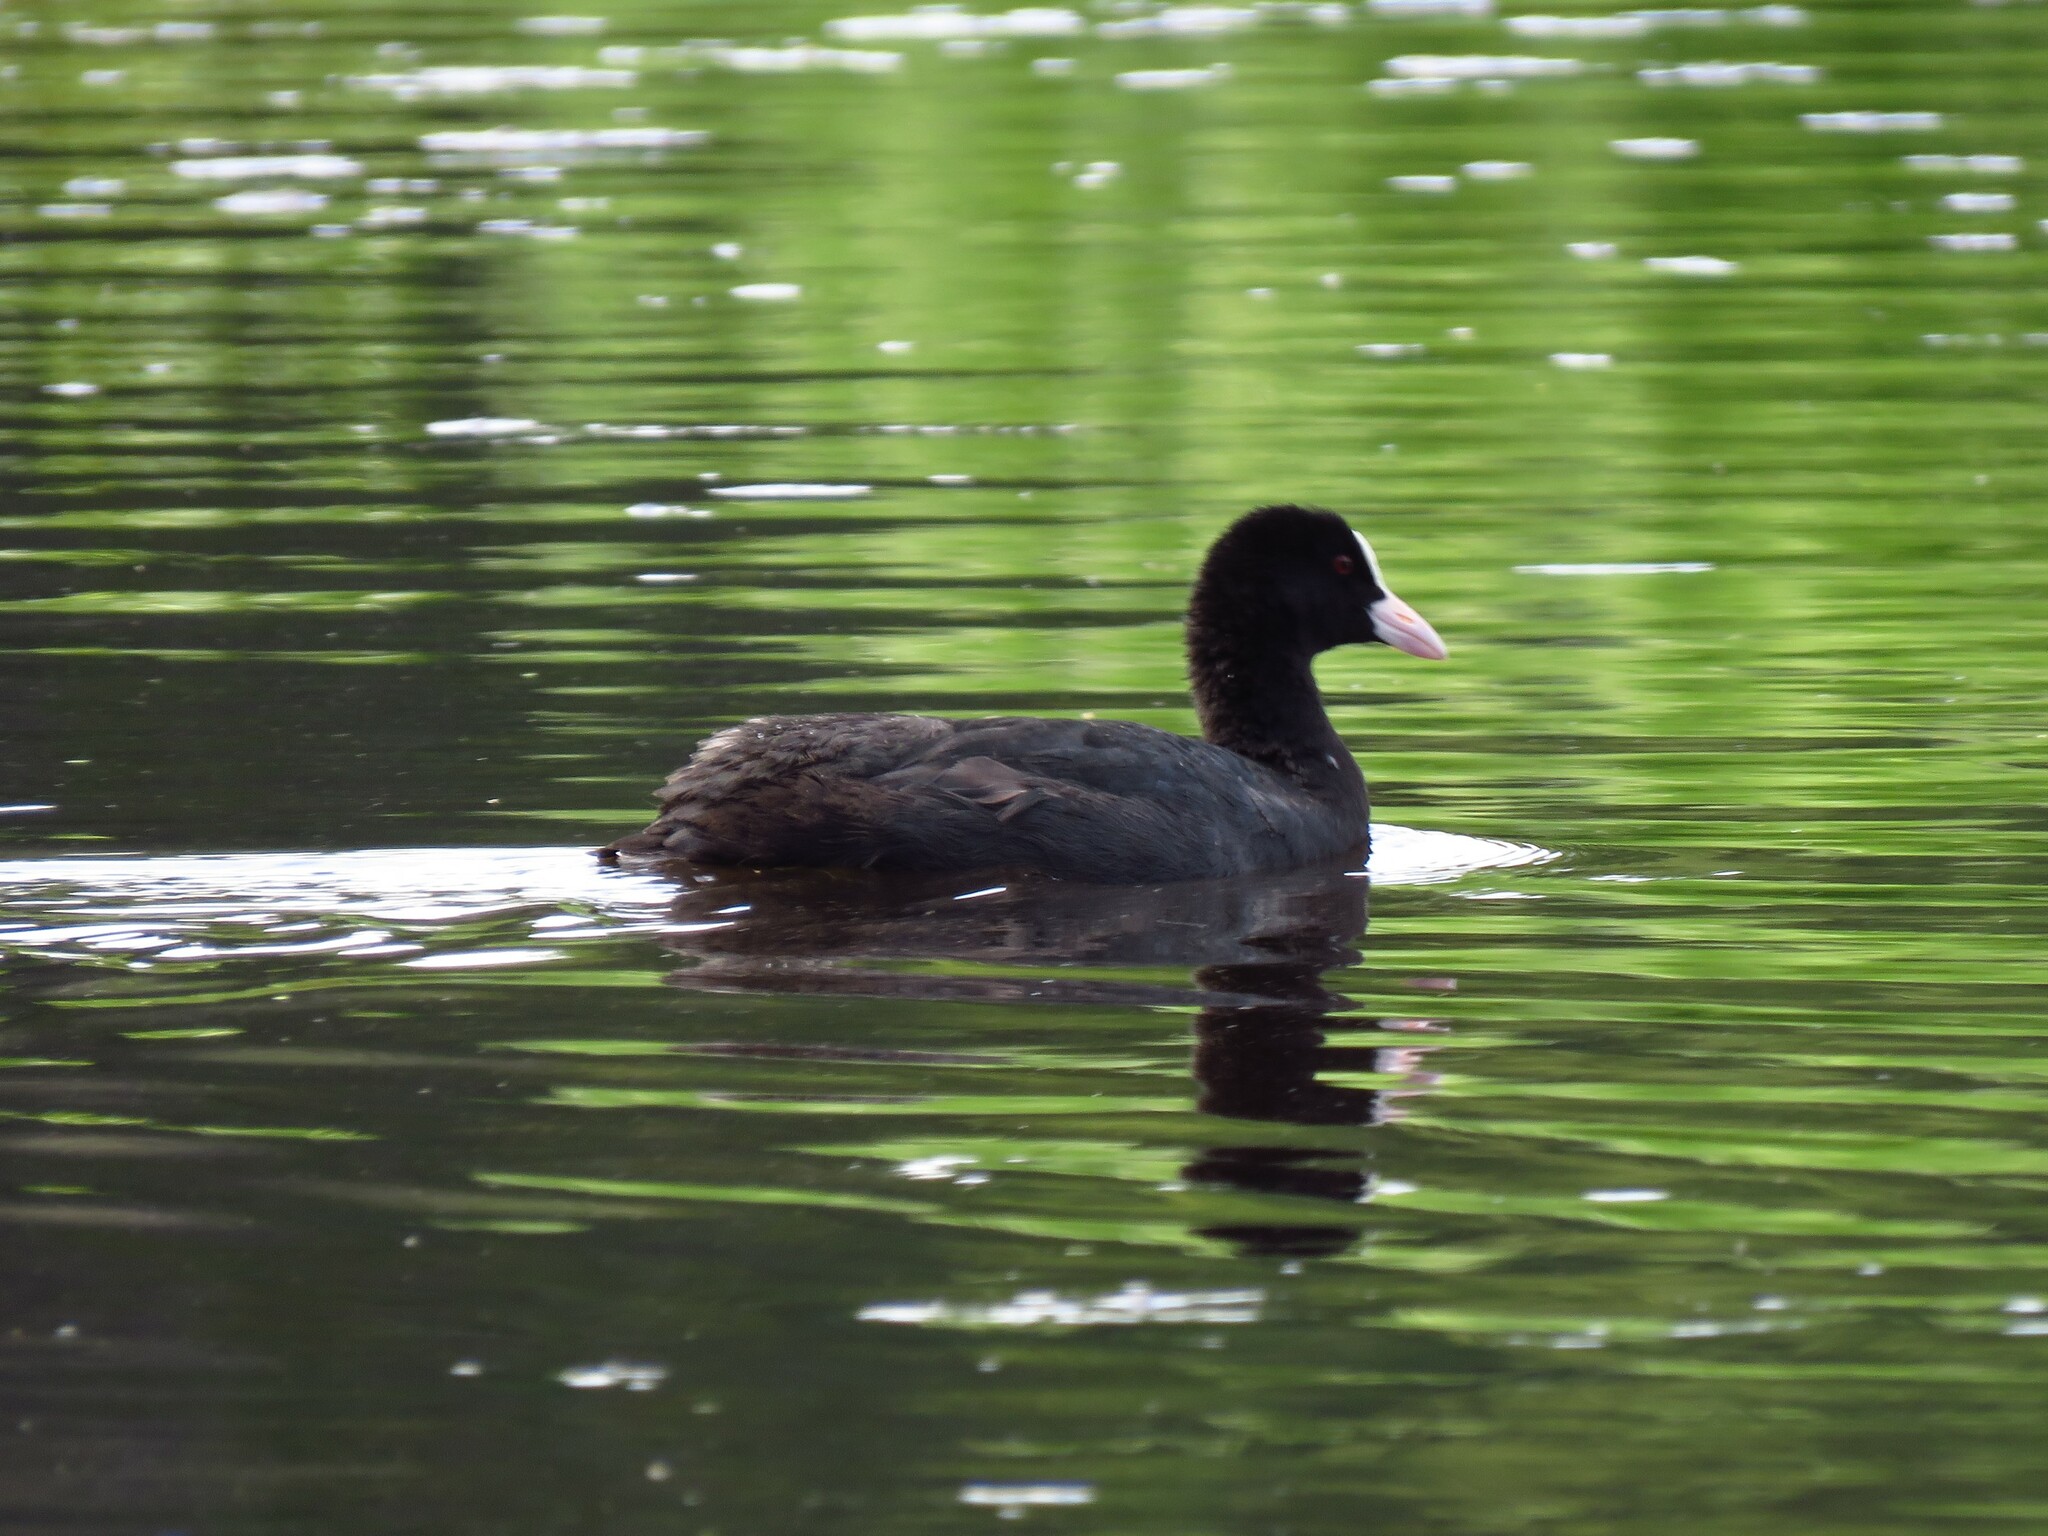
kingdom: Animalia
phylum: Chordata
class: Aves
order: Gruiformes
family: Rallidae
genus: Fulica
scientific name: Fulica atra
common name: Eurasian coot
